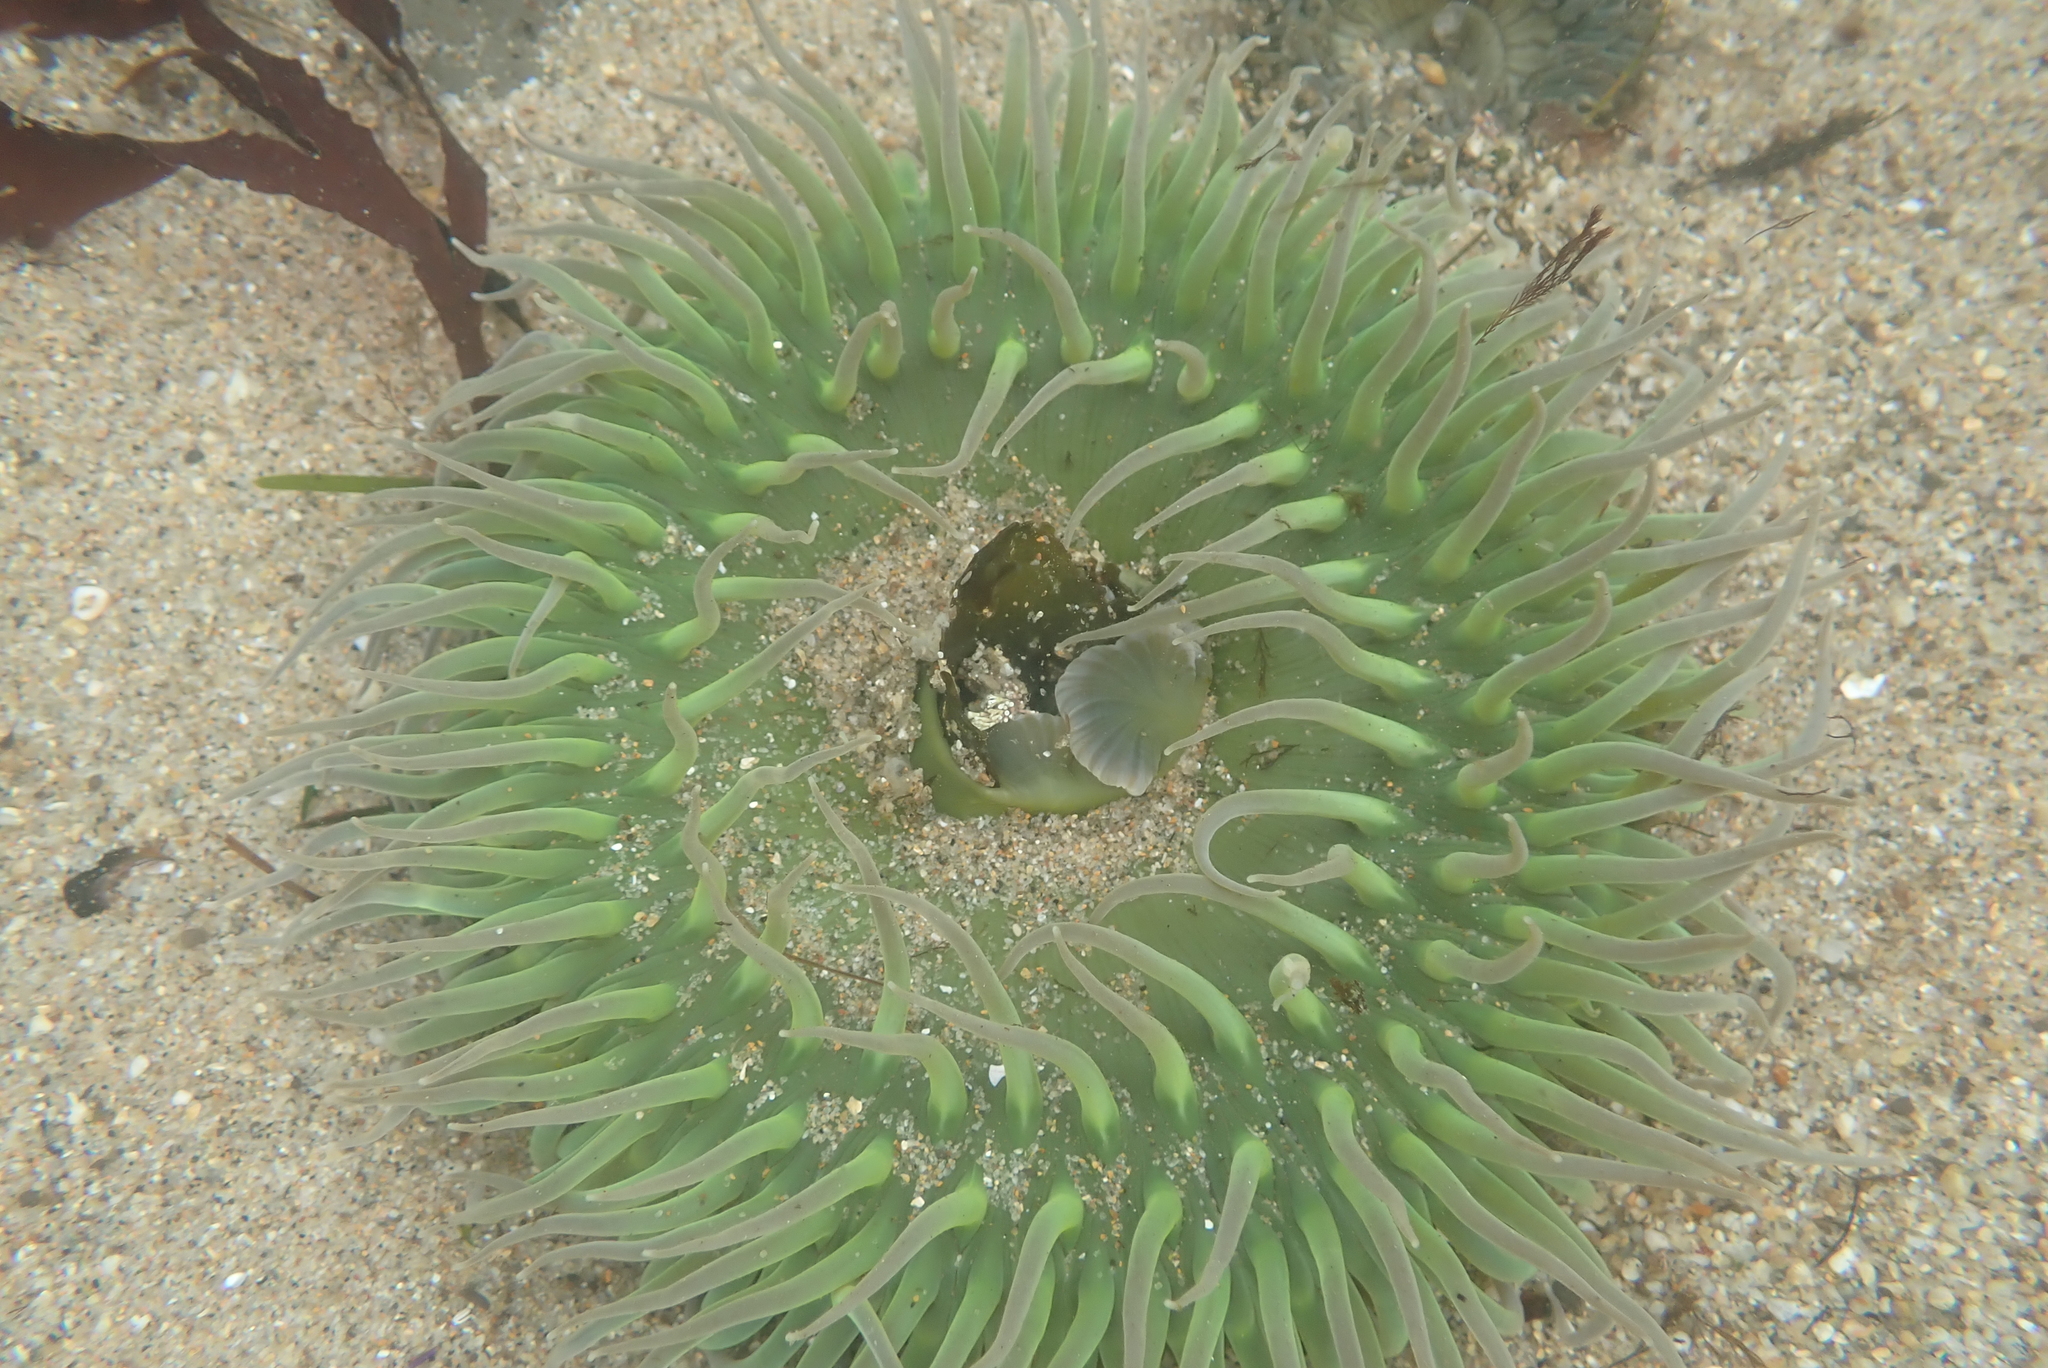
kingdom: Animalia
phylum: Cnidaria
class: Anthozoa
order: Actiniaria
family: Actiniidae
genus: Anthopleura
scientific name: Anthopleura xanthogrammica
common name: Giant green anemone
